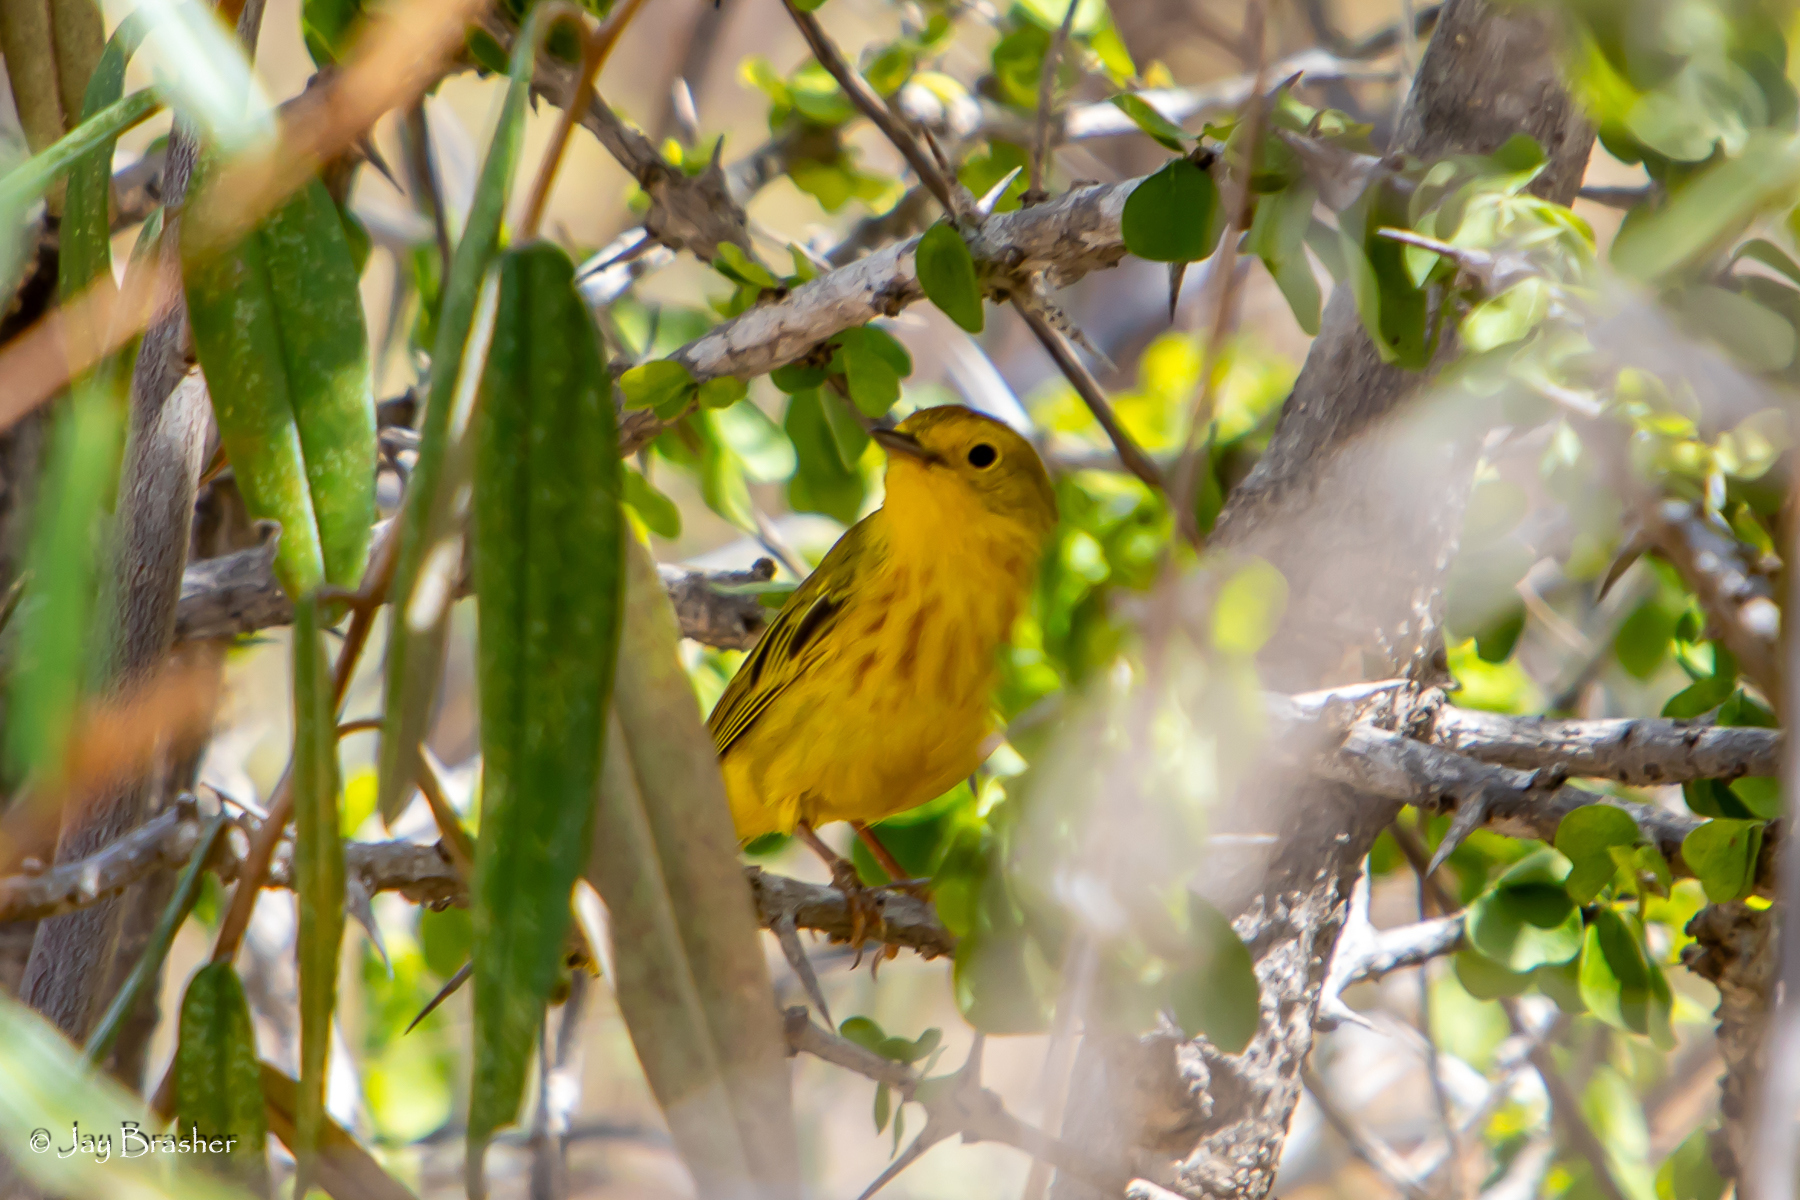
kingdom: Animalia
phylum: Chordata
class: Aves
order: Passeriformes
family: Parulidae
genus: Setophaga
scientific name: Setophaga petechia
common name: Yellow warbler
